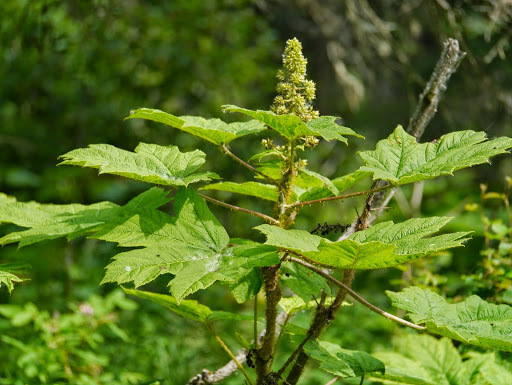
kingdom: Plantae
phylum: Tracheophyta
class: Magnoliopsida
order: Apiales
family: Araliaceae
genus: Oplopanax
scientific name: Oplopanax horridus
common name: Devil's walking-stick
